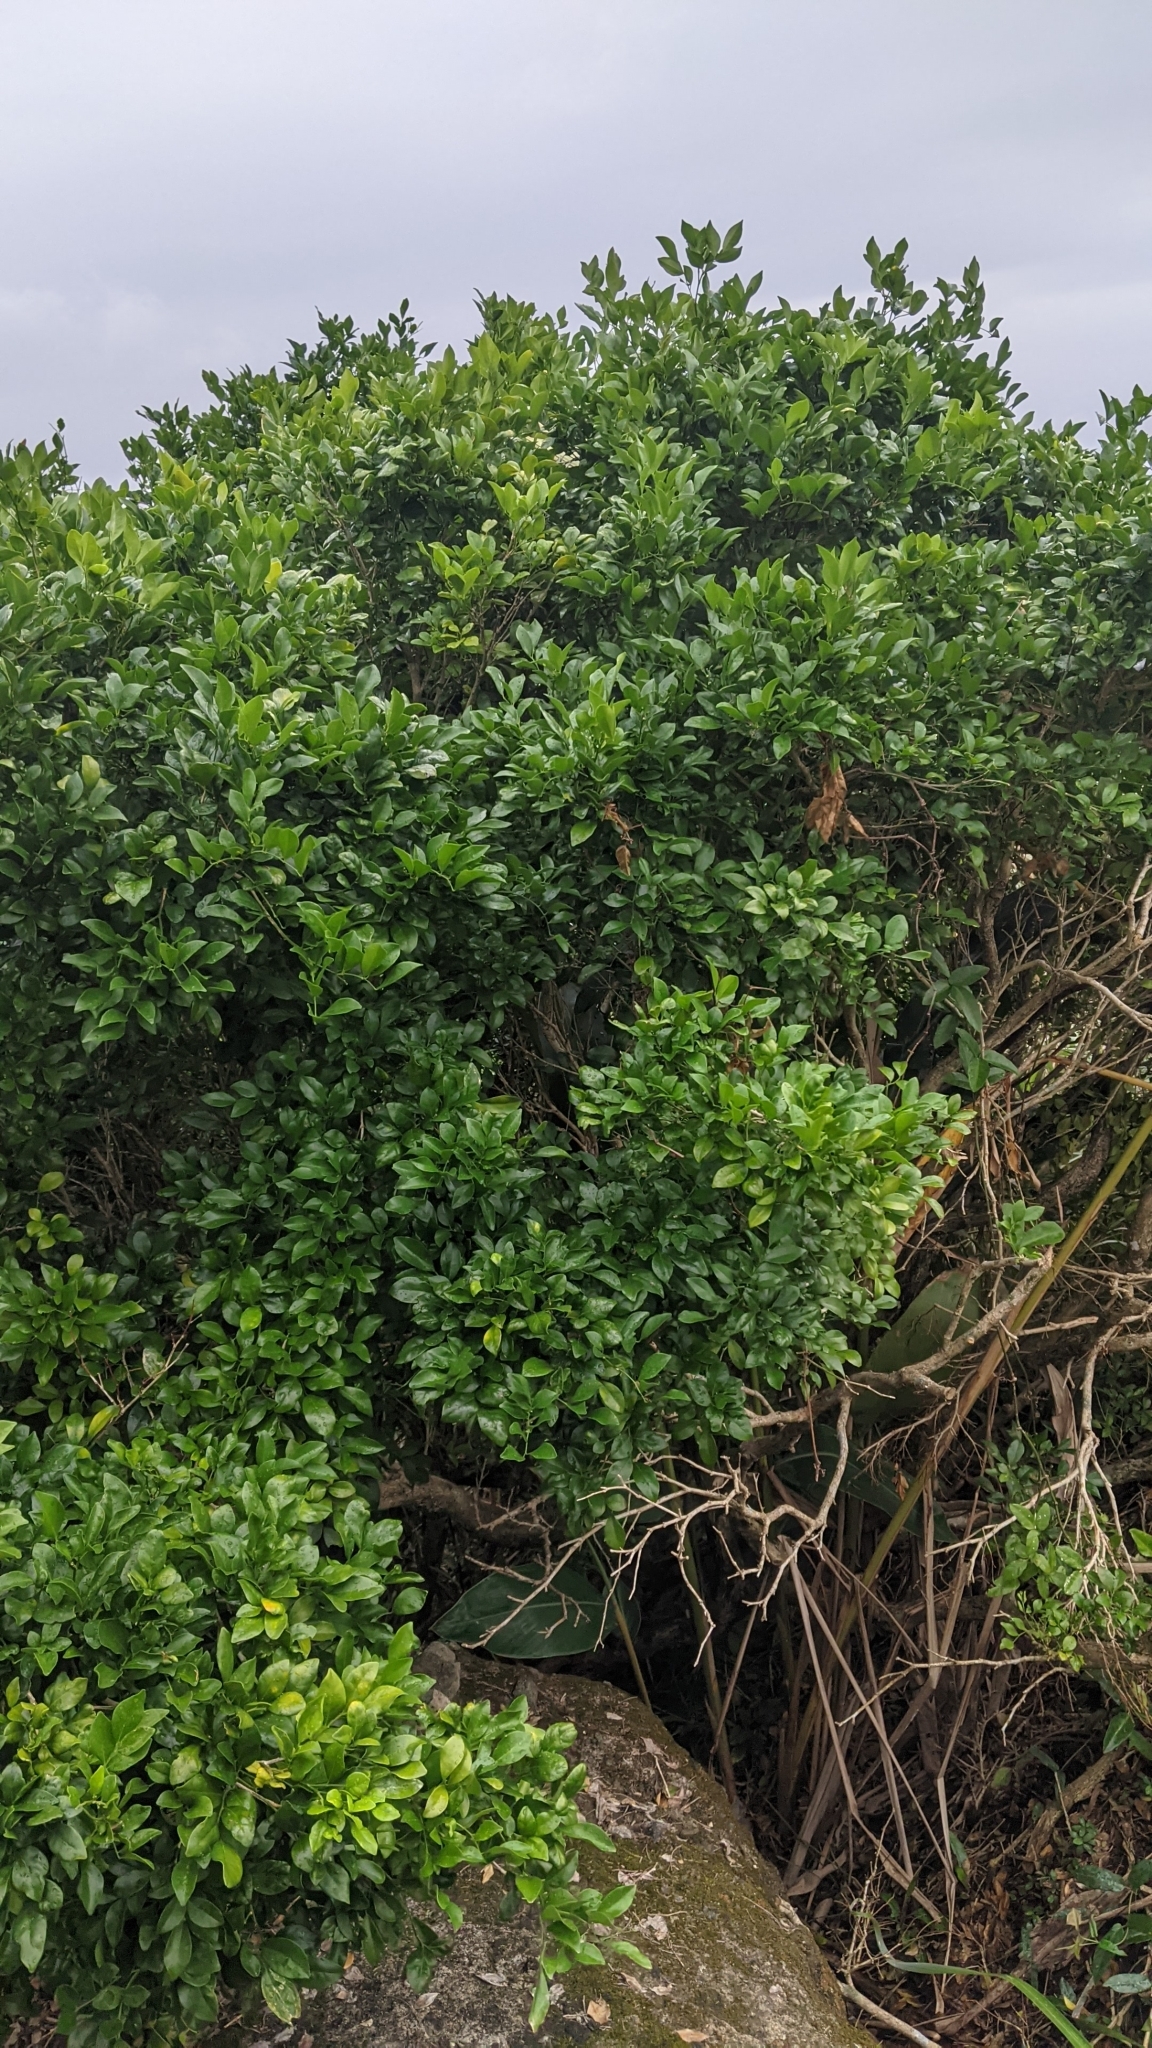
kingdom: Plantae
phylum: Tracheophyta
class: Magnoliopsida
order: Sapindales
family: Rutaceae
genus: Murraya
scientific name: Murraya paniculata
